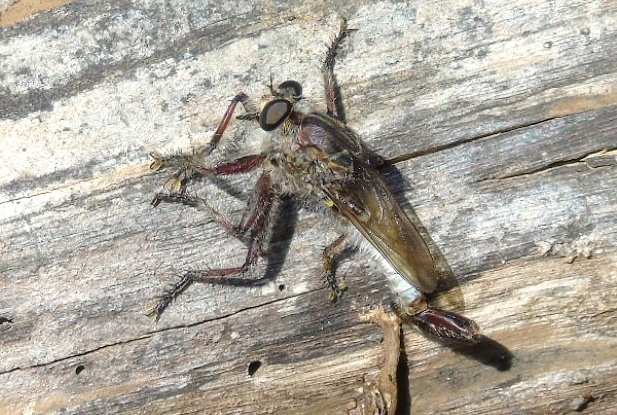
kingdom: Animalia
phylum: Arthropoda
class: Insecta
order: Diptera
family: Asilidae
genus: Efferia
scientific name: Efferia
